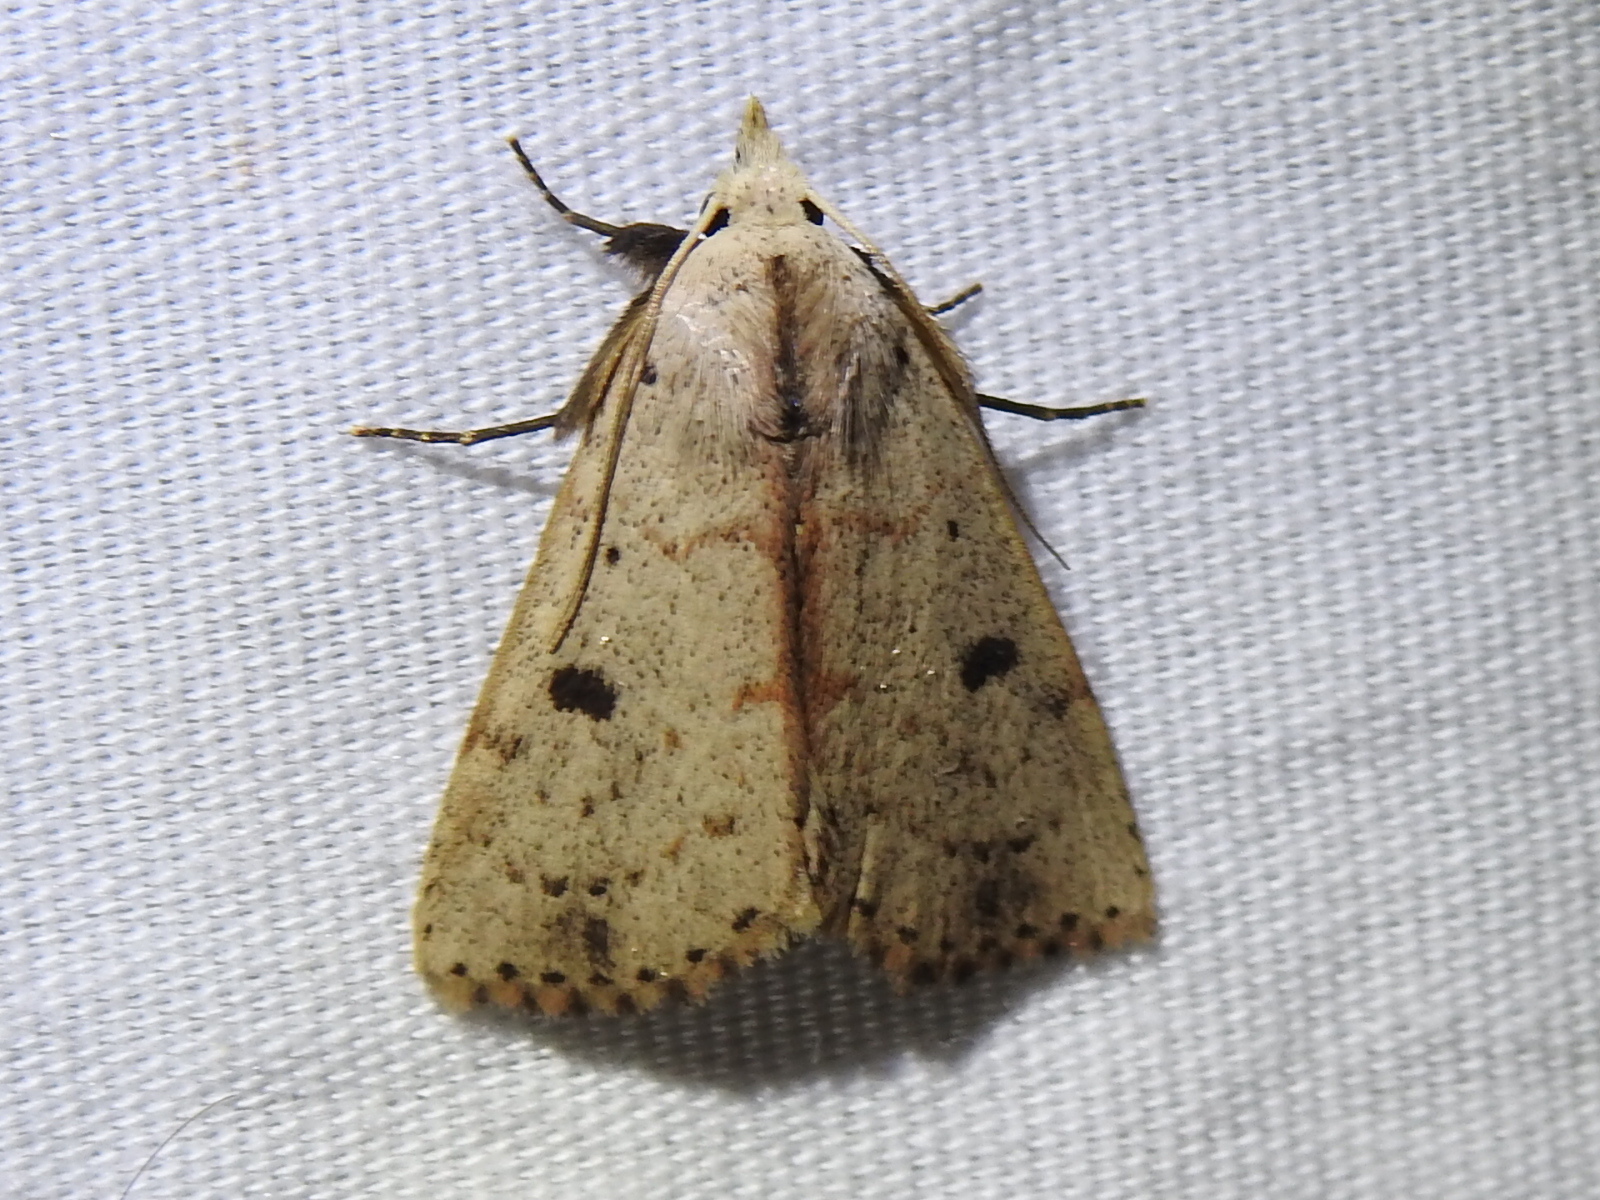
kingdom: Animalia
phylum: Arthropoda
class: Insecta
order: Lepidoptera
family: Erebidae
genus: Scolecocampa
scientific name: Scolecocampa liburna
